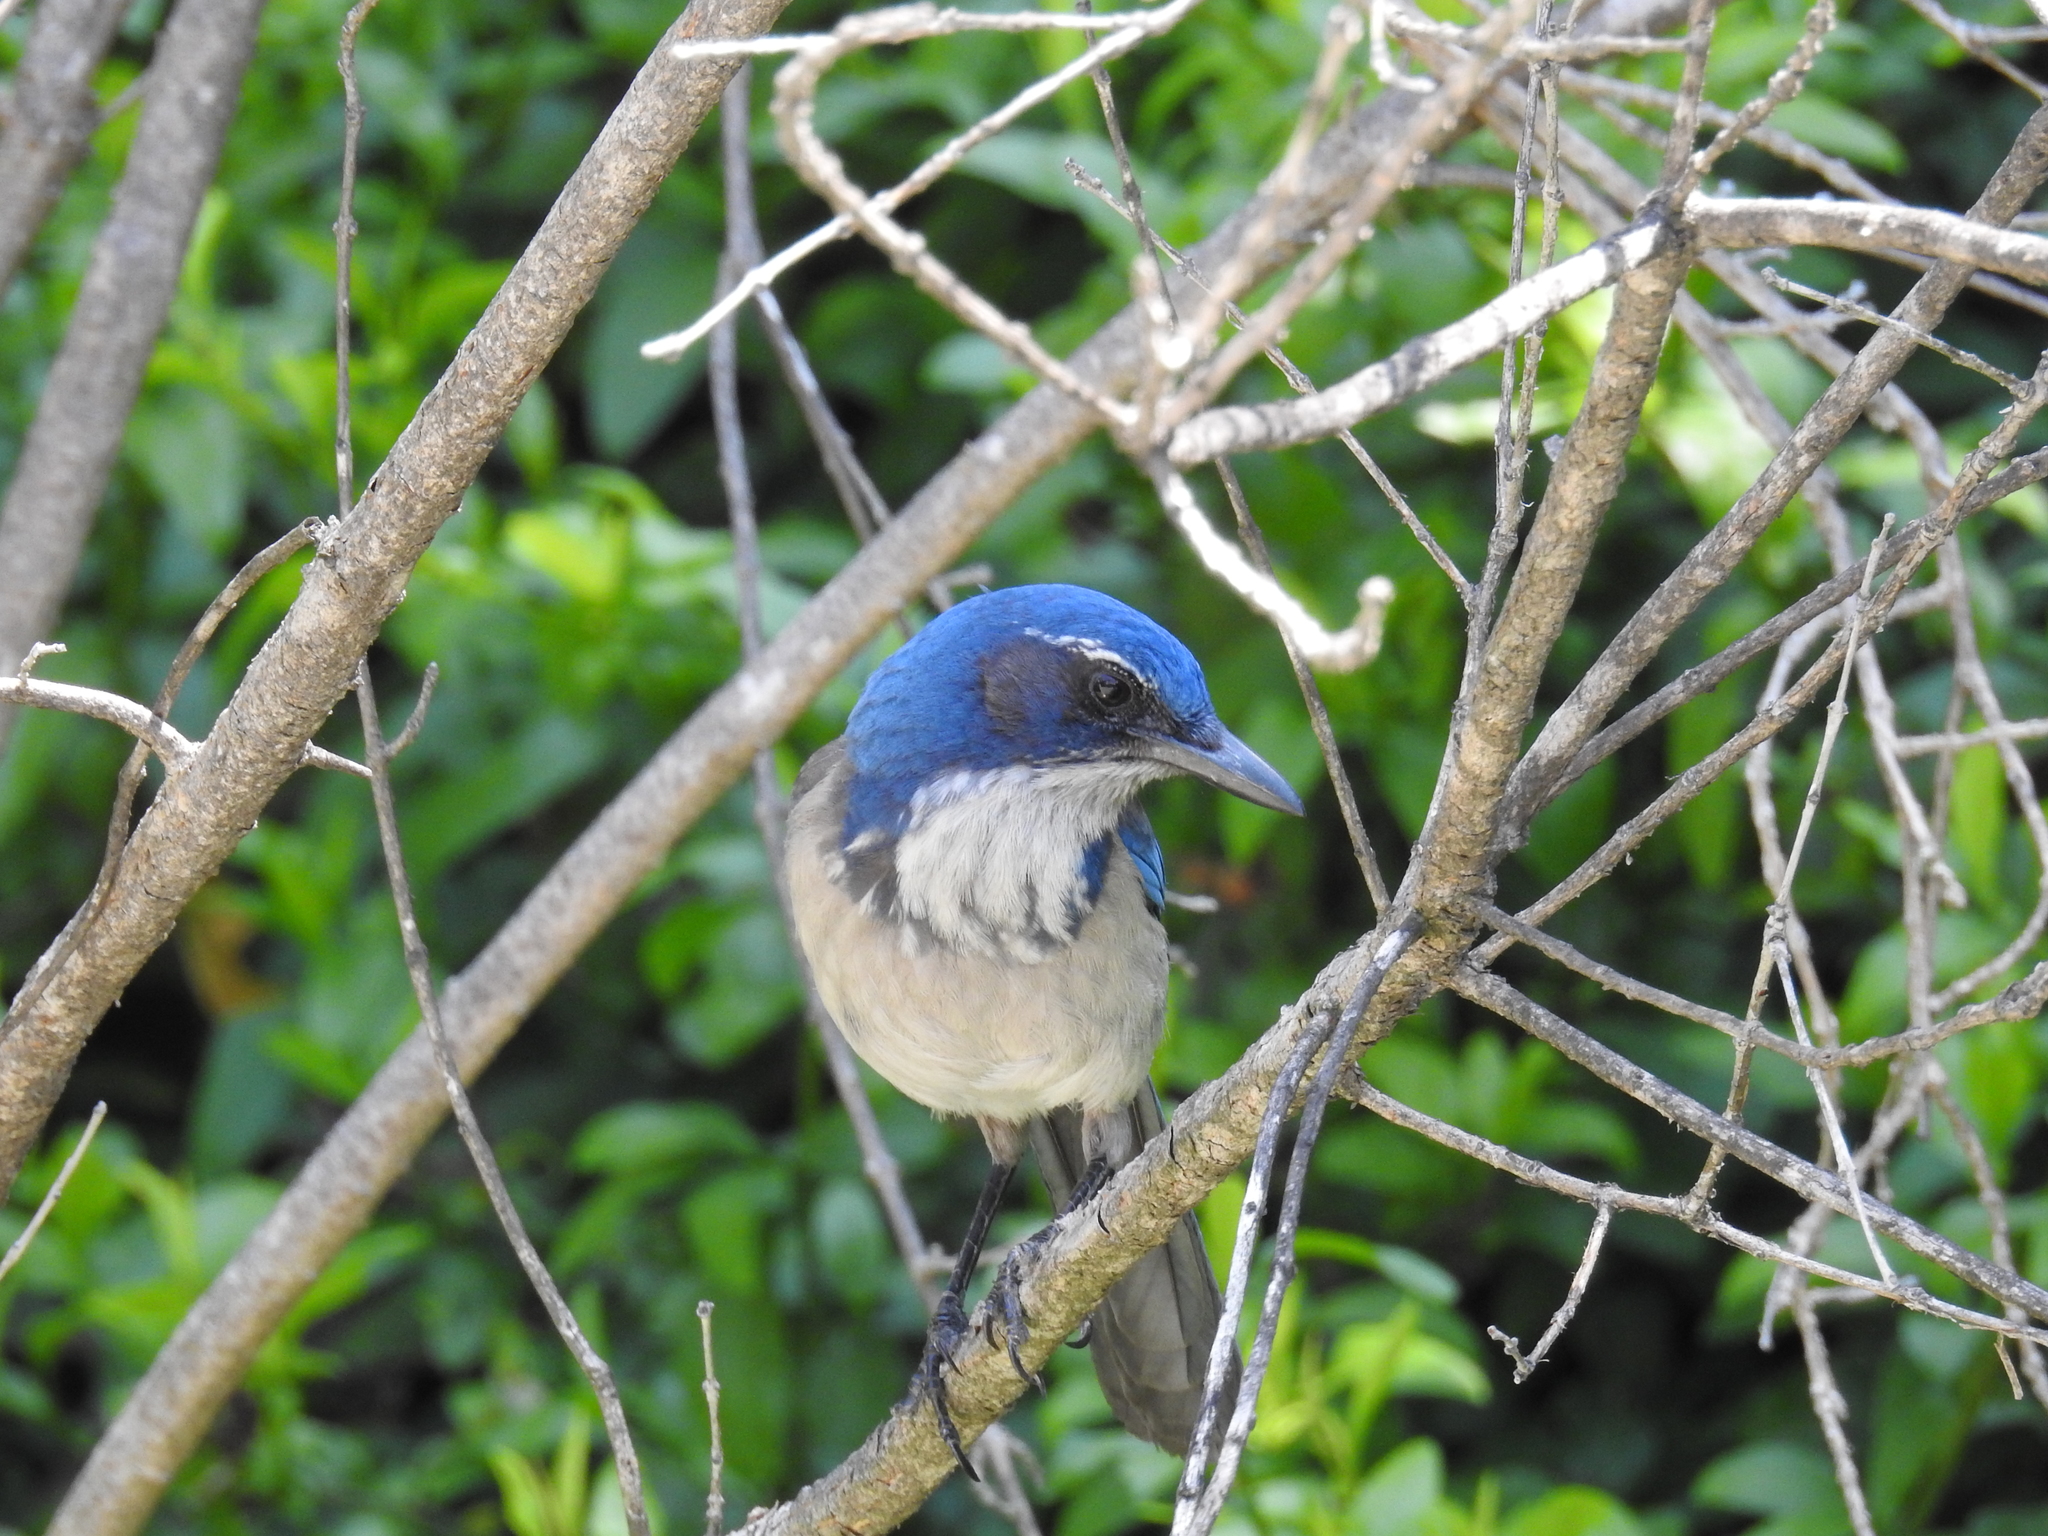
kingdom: Animalia
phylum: Chordata
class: Aves
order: Passeriformes
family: Corvidae
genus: Aphelocoma
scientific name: Aphelocoma californica
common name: California scrub-jay
